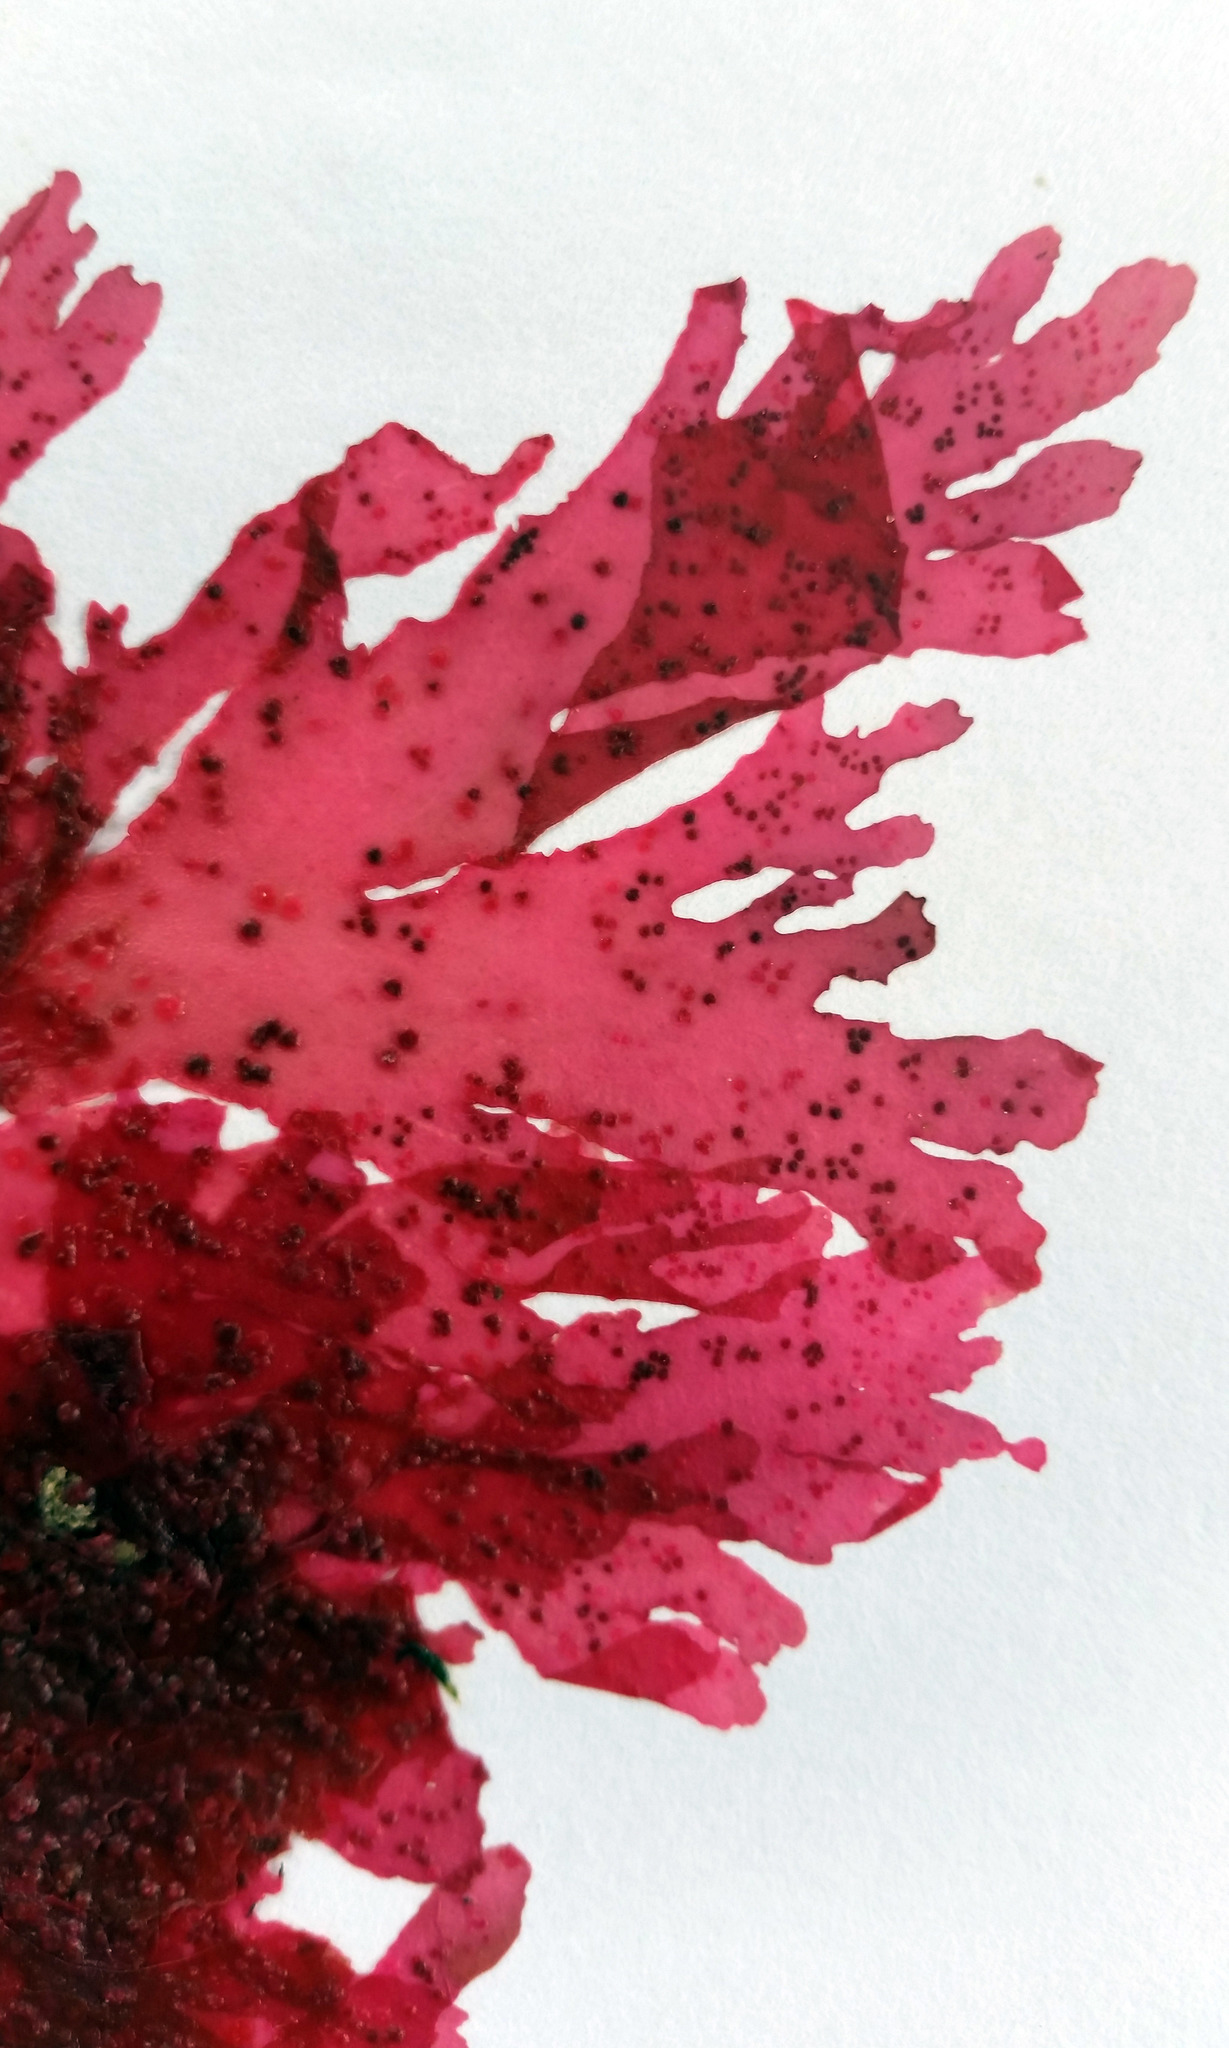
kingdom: Plantae
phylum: Rhodophyta
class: Florideophyceae
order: Ceramiales
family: Delesseriaceae
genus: Haraldiophyllum
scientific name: Haraldiophyllum crispatum
